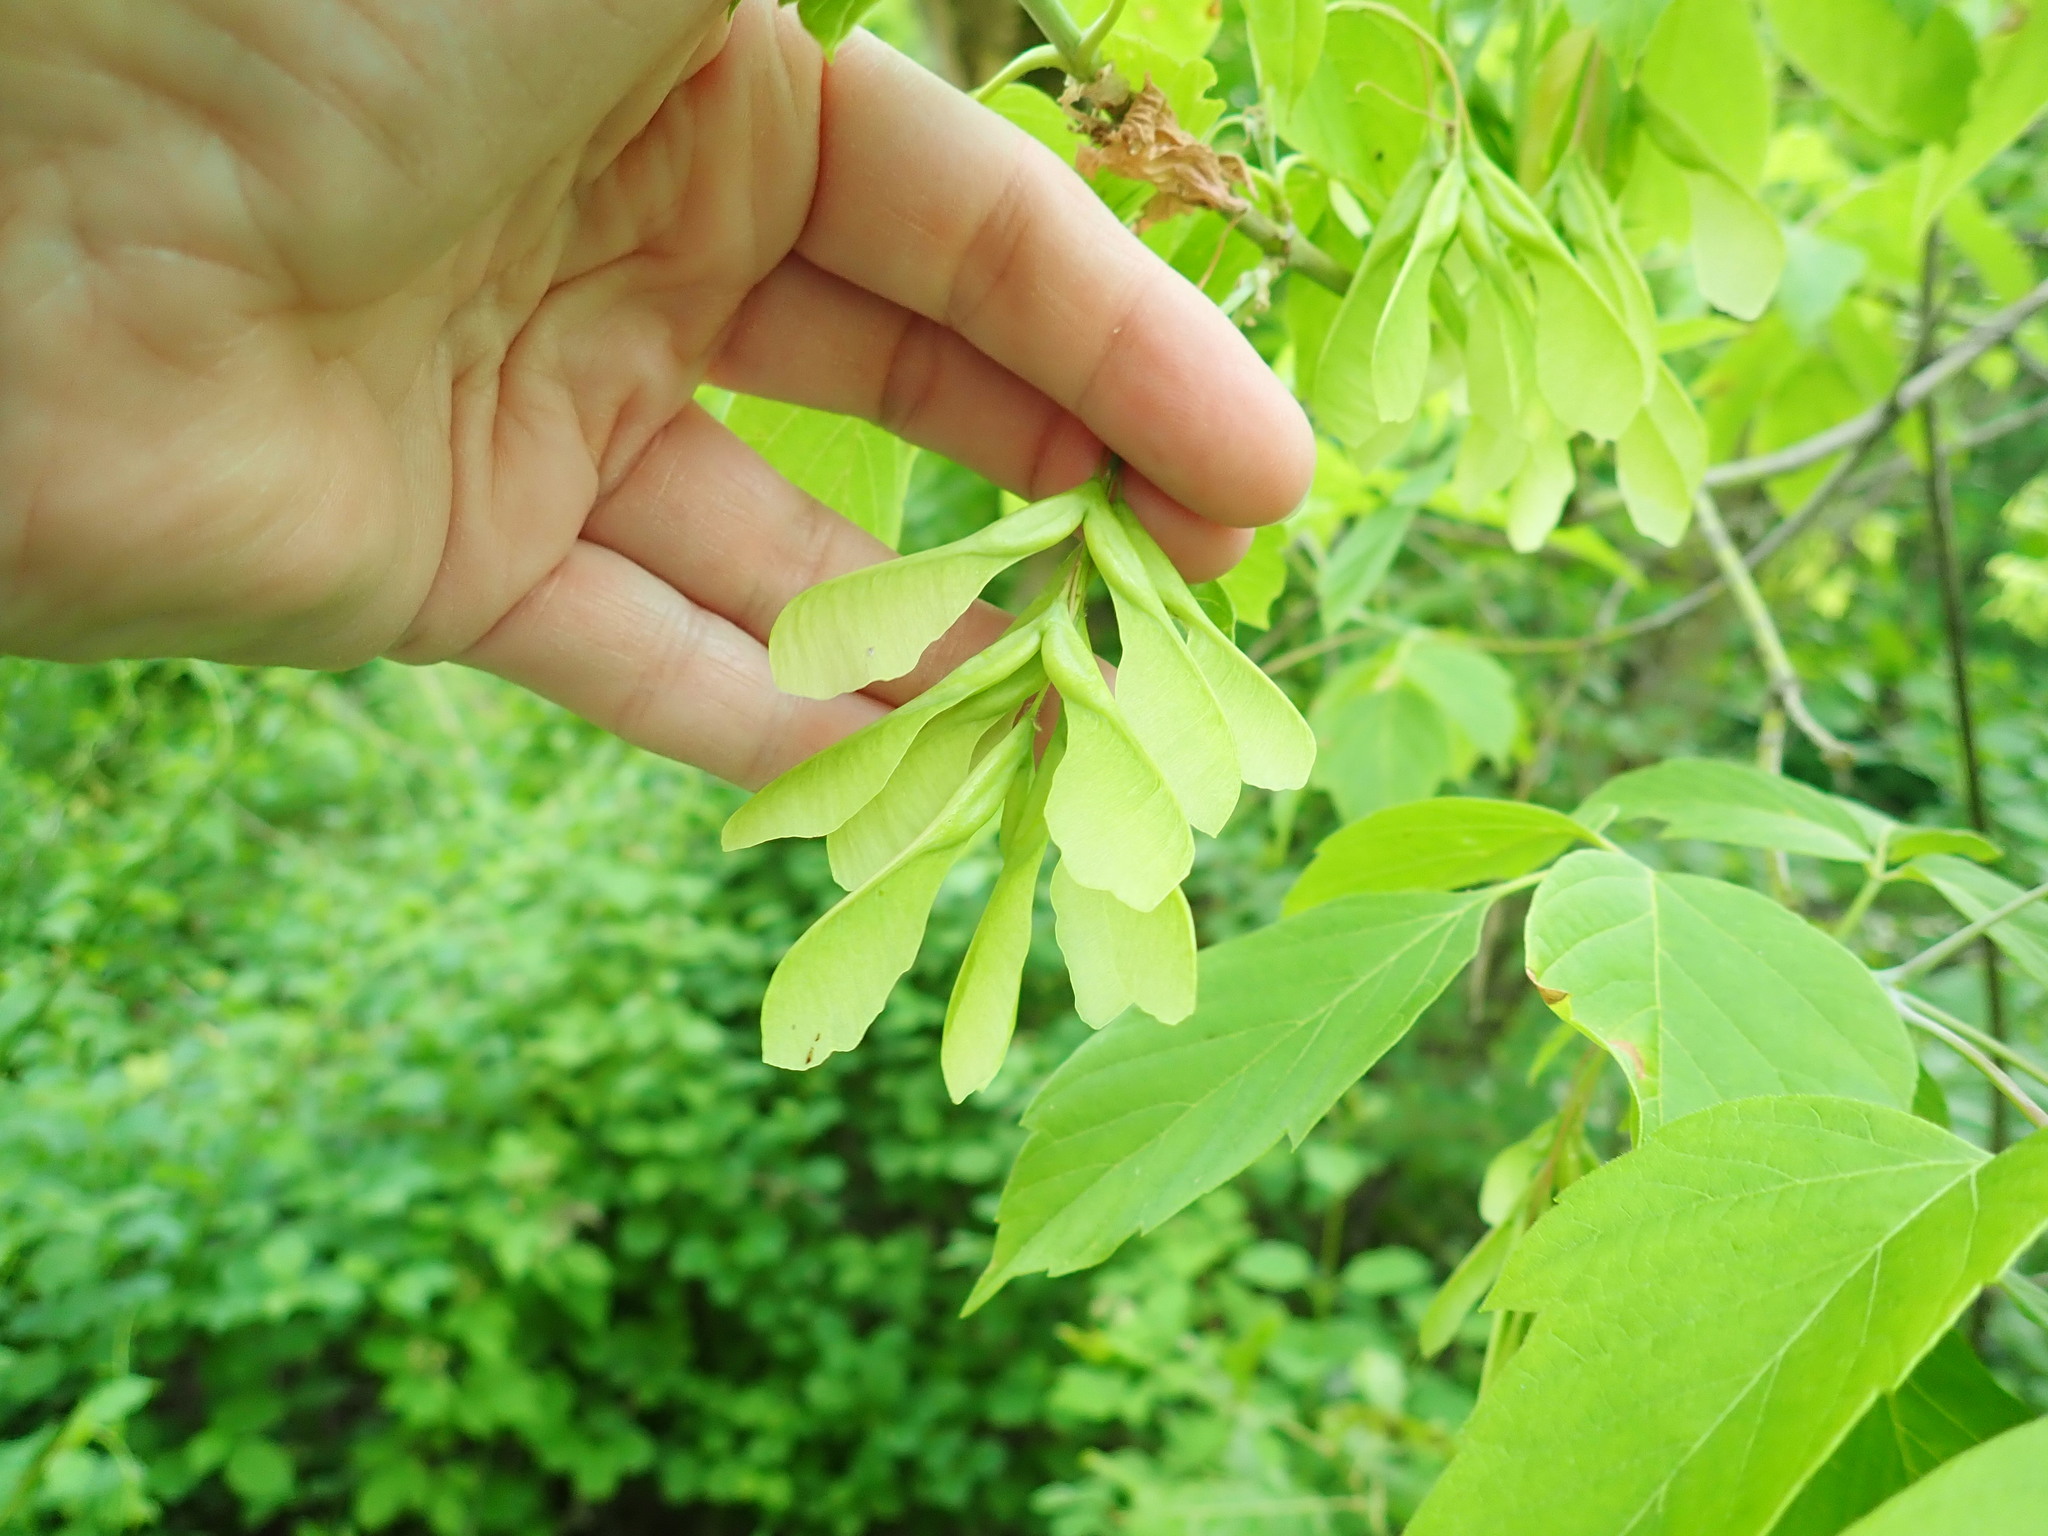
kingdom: Plantae
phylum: Tracheophyta
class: Magnoliopsida
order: Sapindales
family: Sapindaceae
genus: Acer
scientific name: Acer negundo
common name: Ashleaf maple
